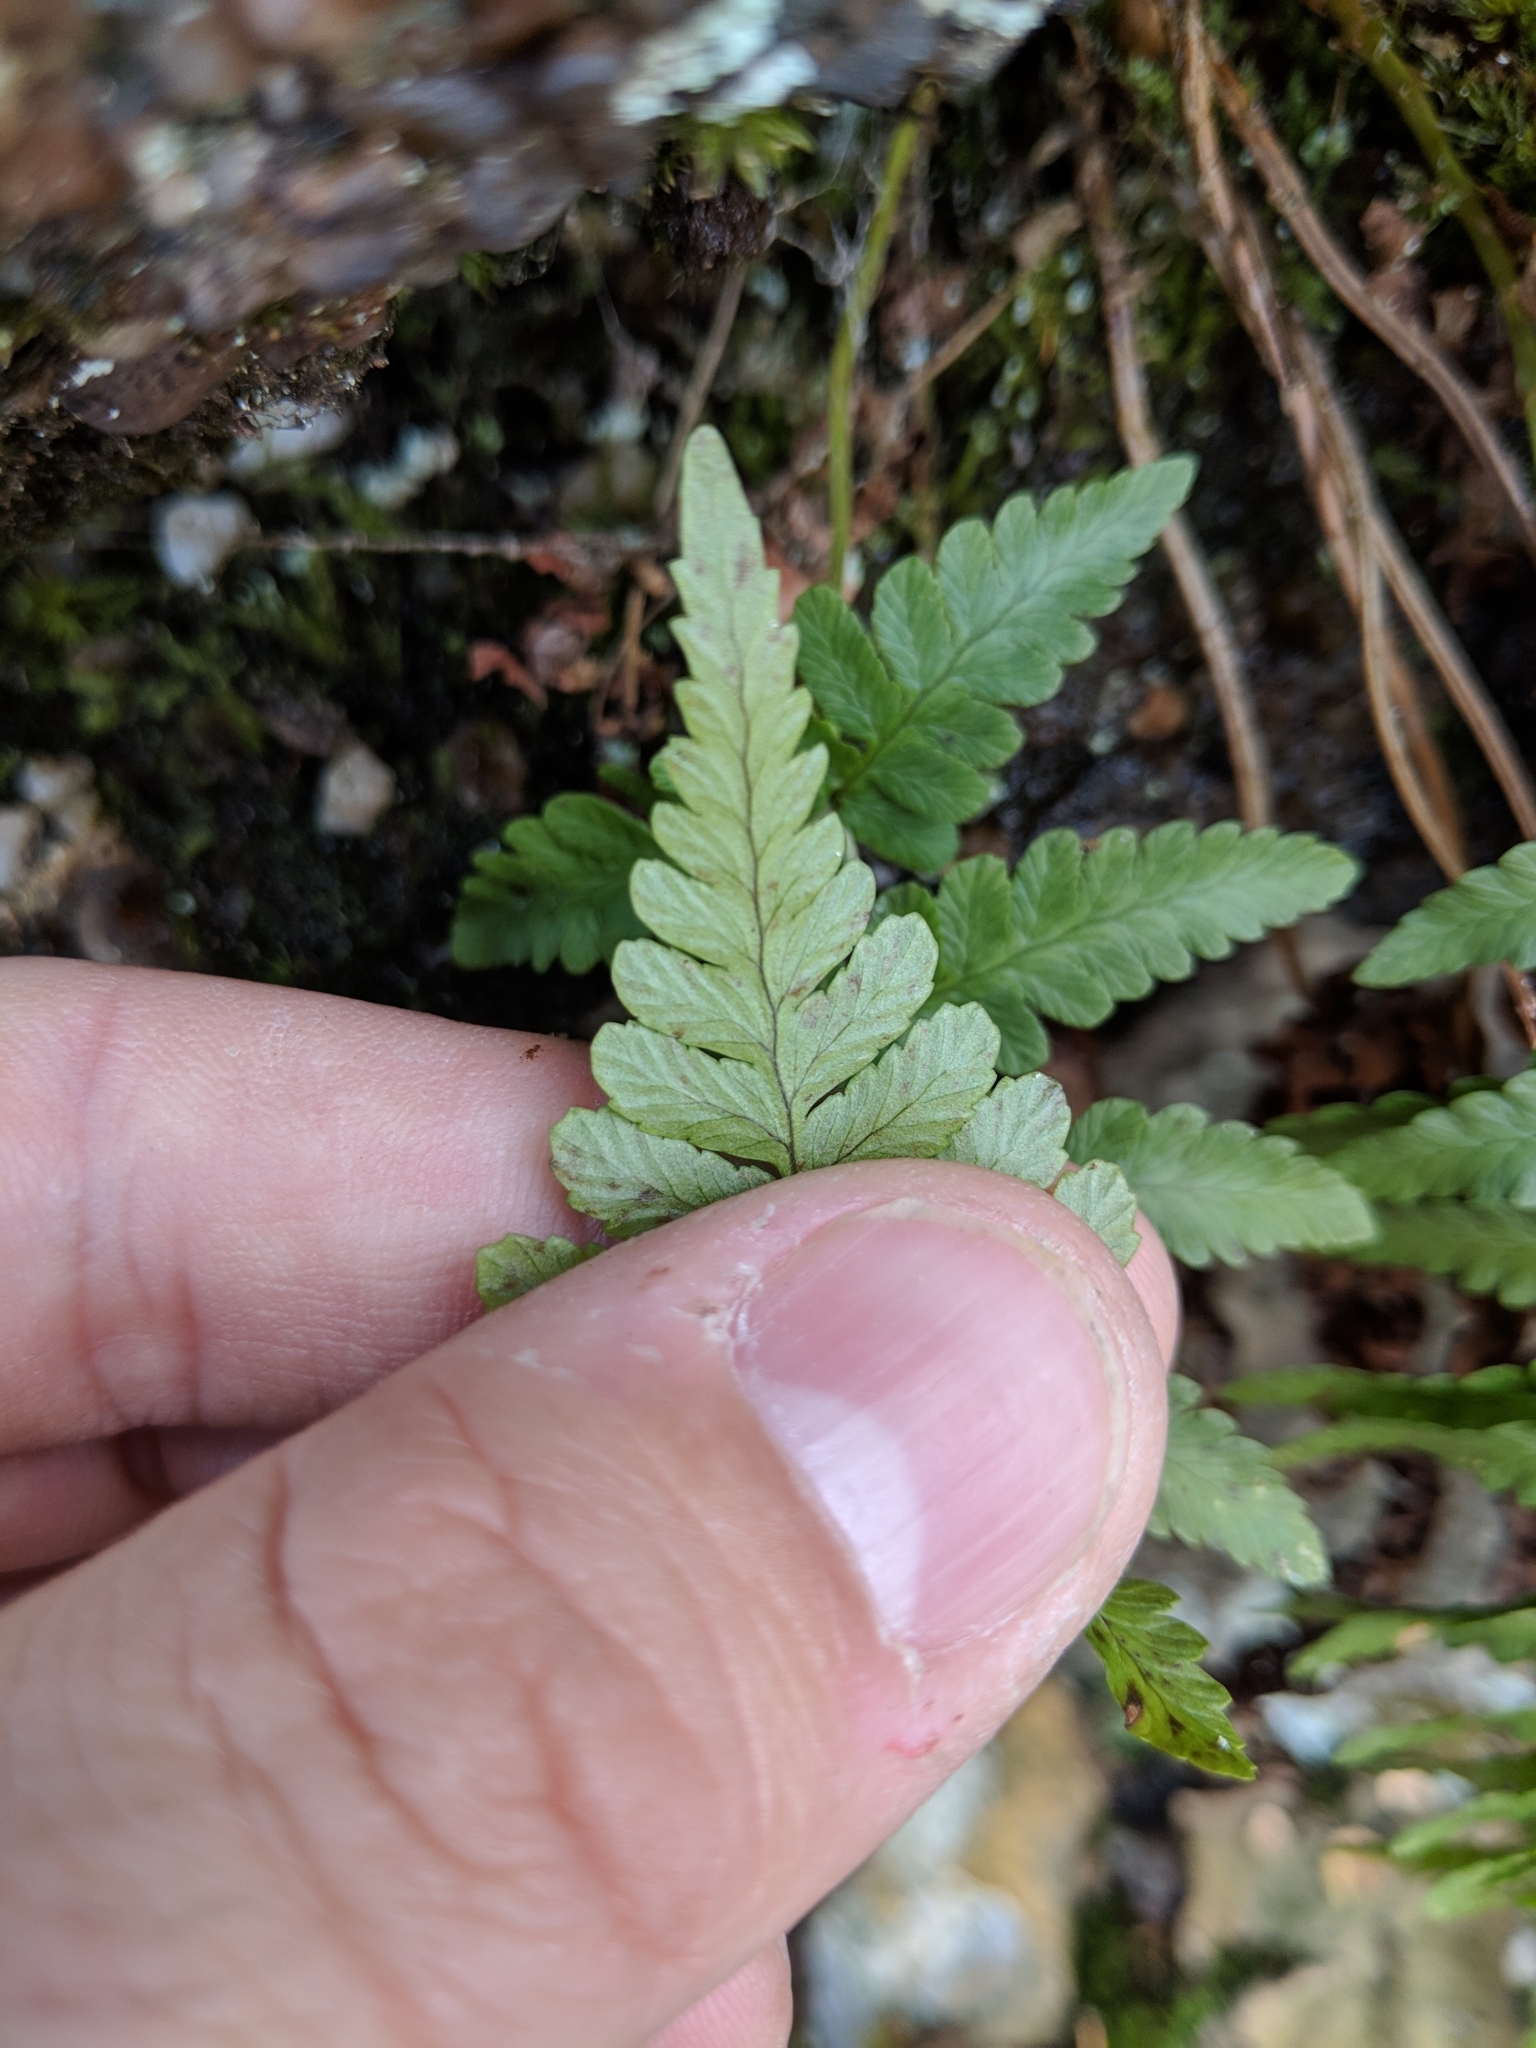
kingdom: Plantae
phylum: Tracheophyta
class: Polypodiopsida
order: Polypodiales
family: Dryopteridaceae
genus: Dryopteris
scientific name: Dryopteris marginalis
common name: Marginal wood fern
